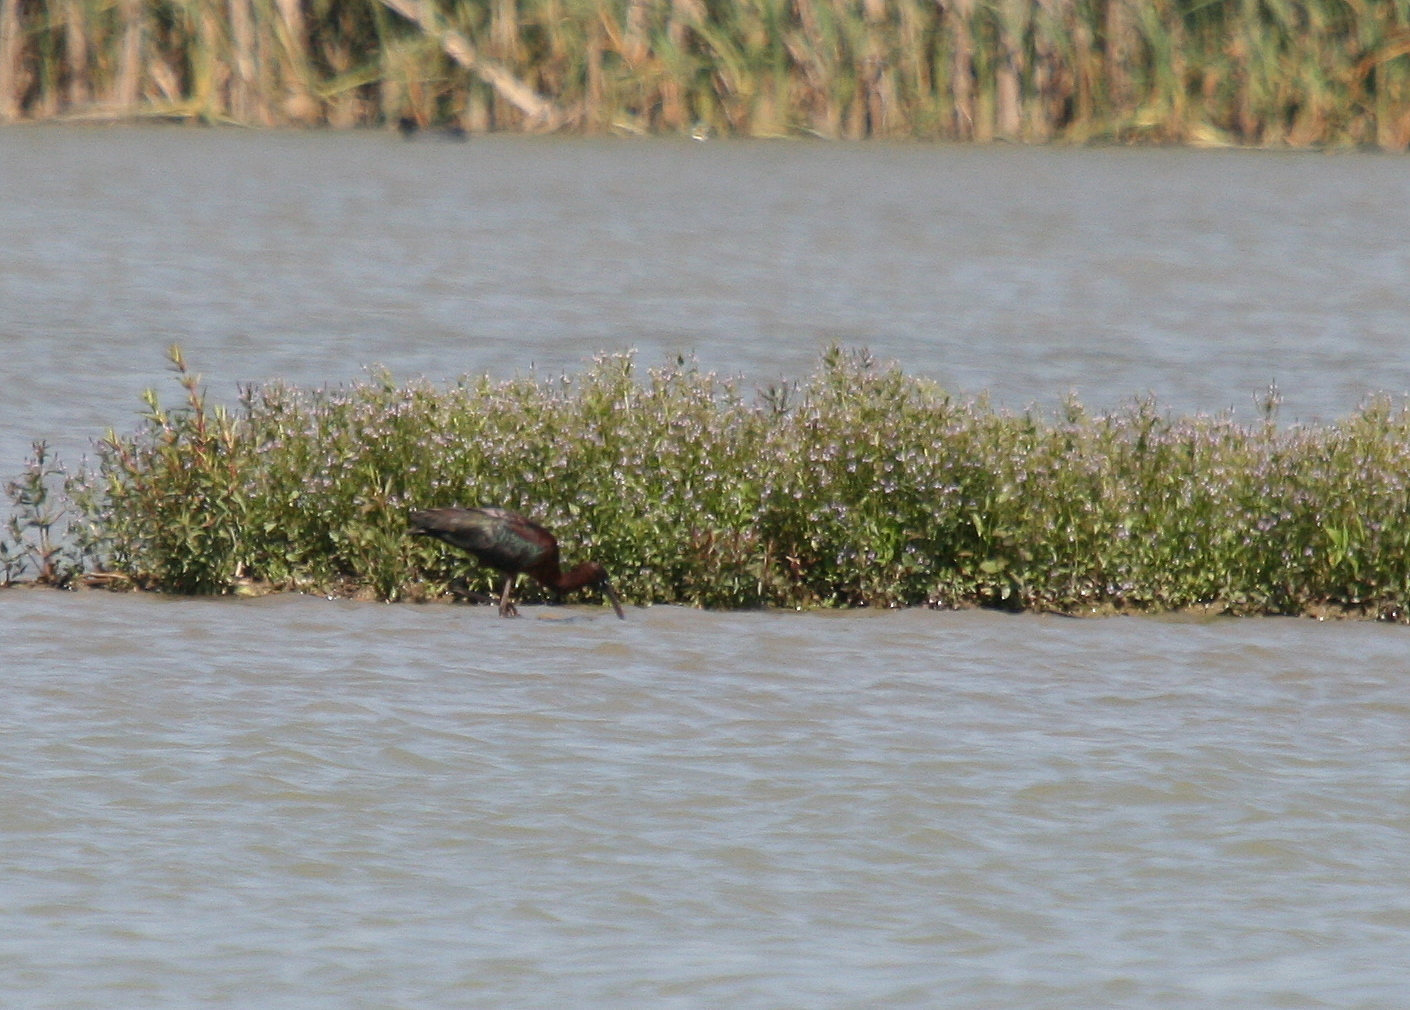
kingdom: Animalia
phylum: Chordata
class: Aves
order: Pelecaniformes
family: Threskiornithidae
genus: Plegadis
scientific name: Plegadis falcinellus
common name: Glossy ibis
